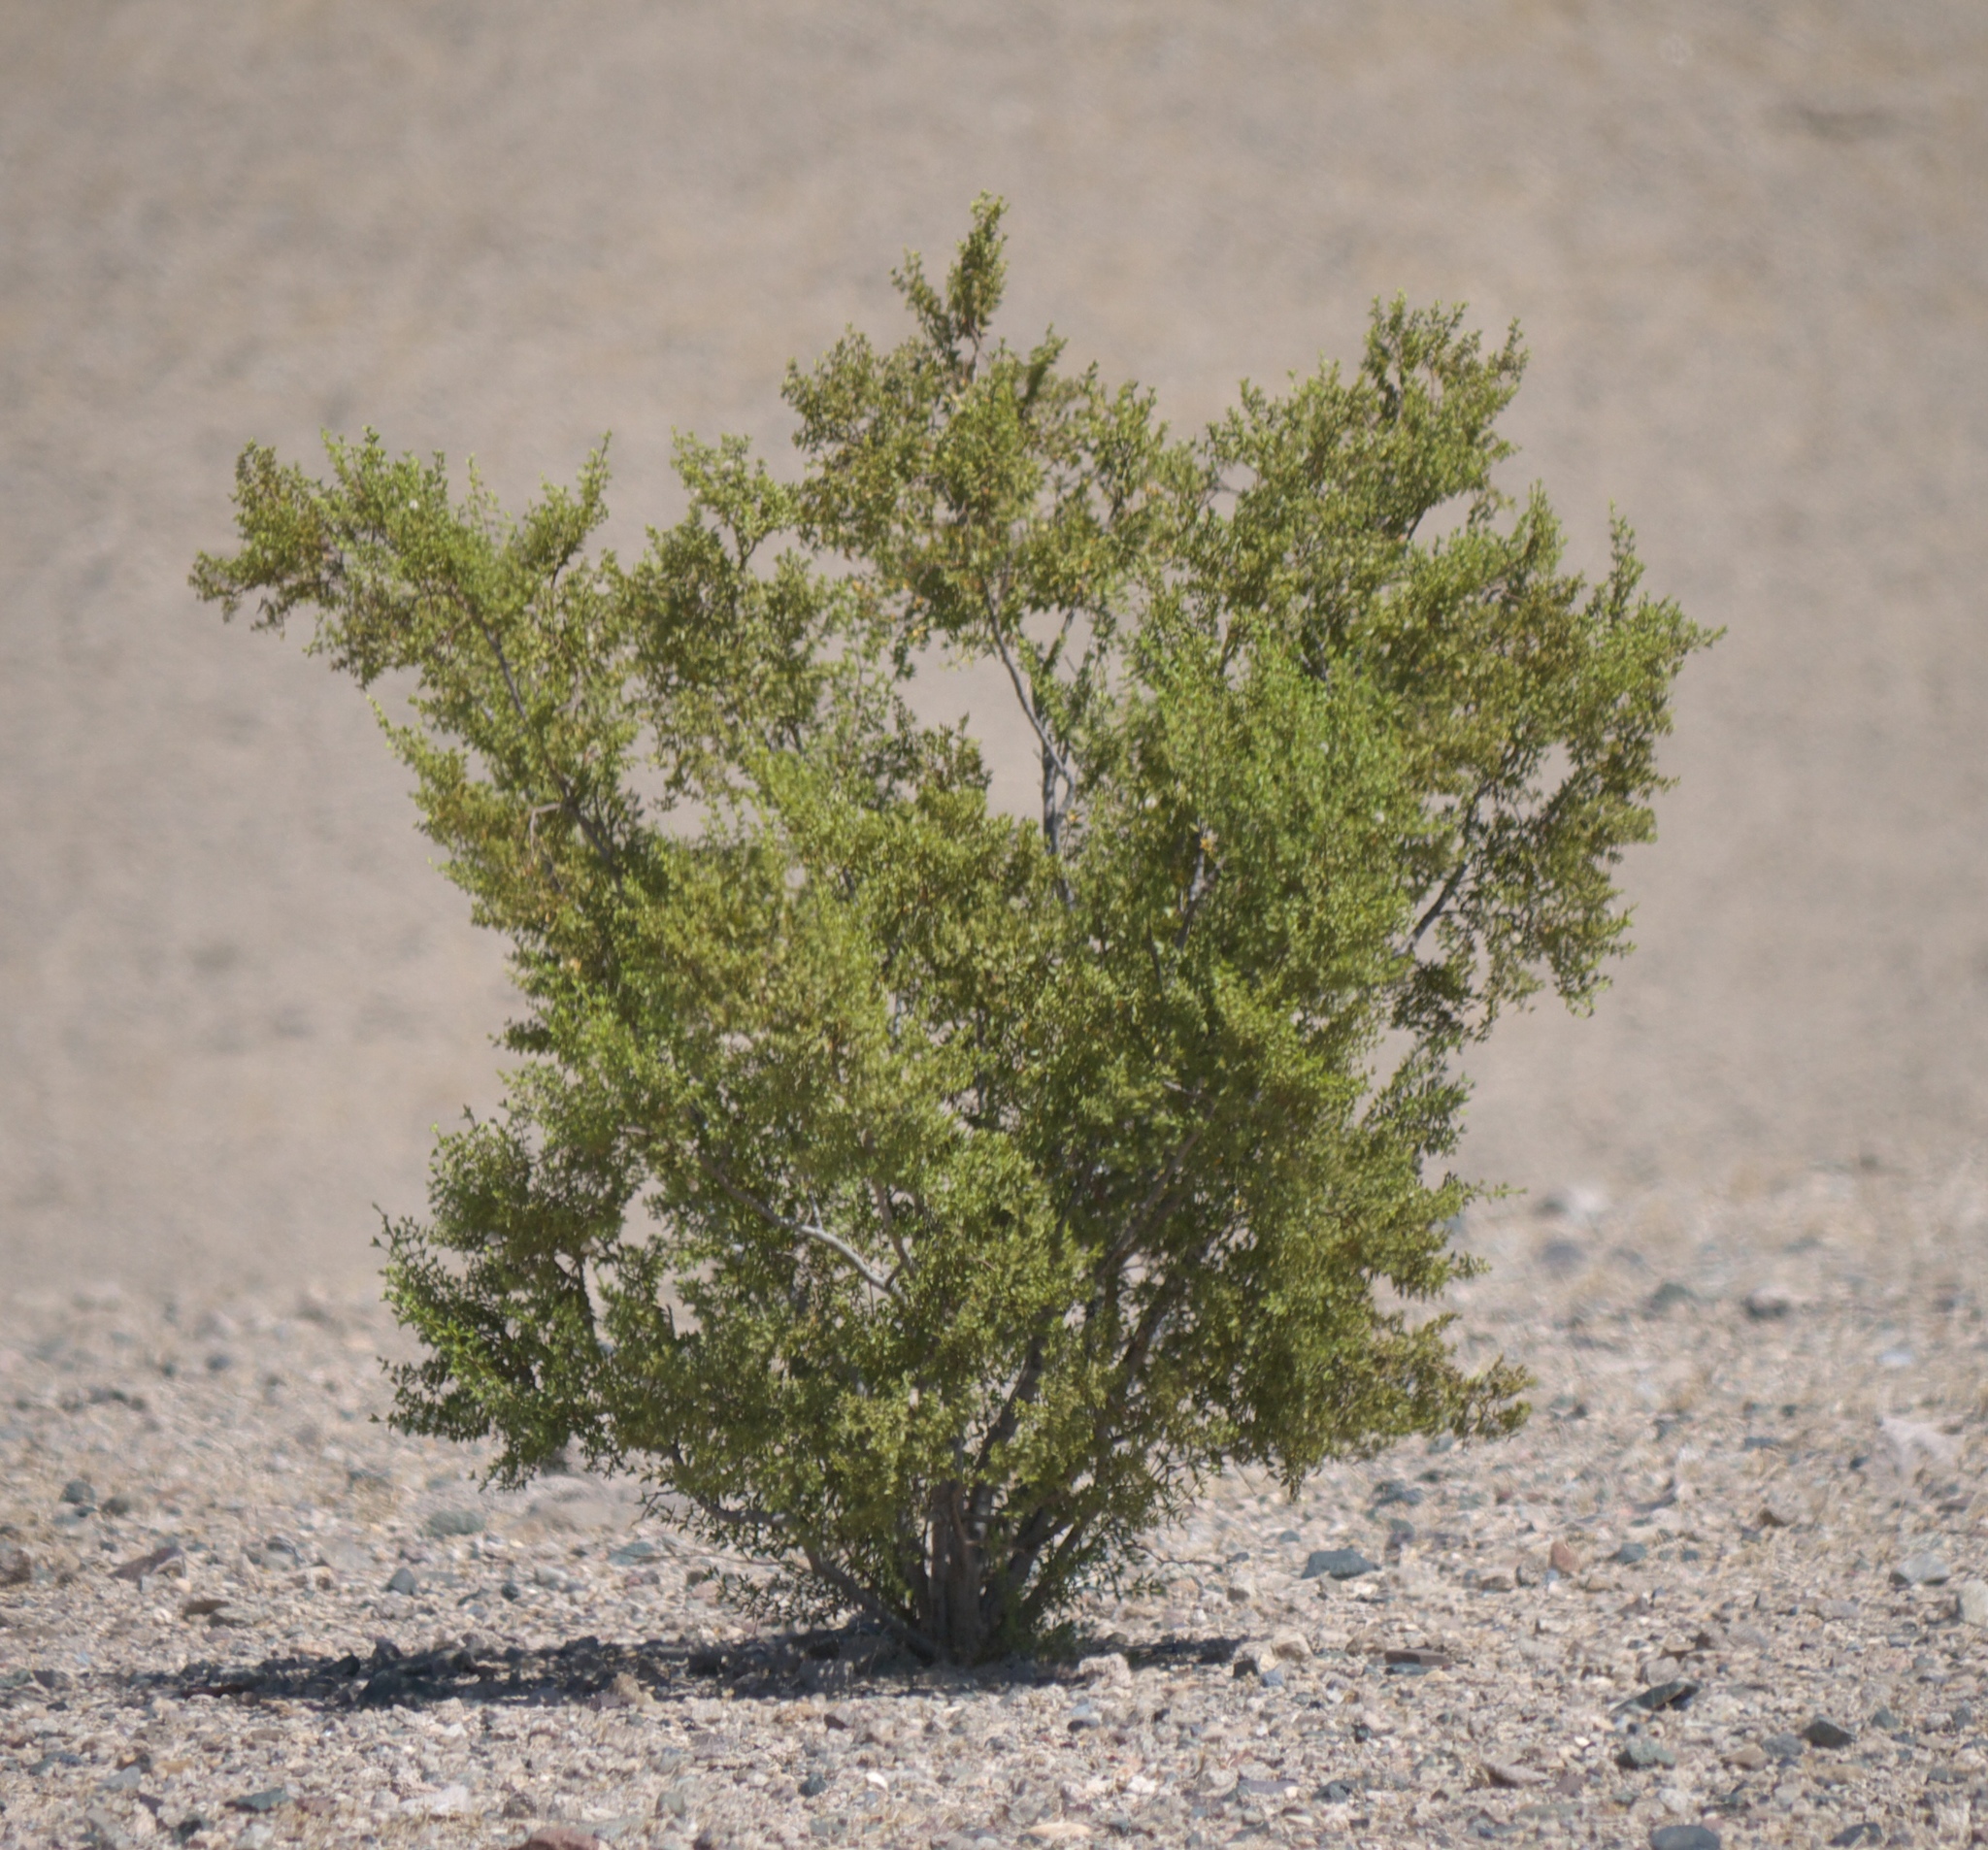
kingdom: Plantae
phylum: Tracheophyta
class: Magnoliopsida
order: Zygophyllales
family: Zygophyllaceae
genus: Larrea
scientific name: Larrea tridentata
